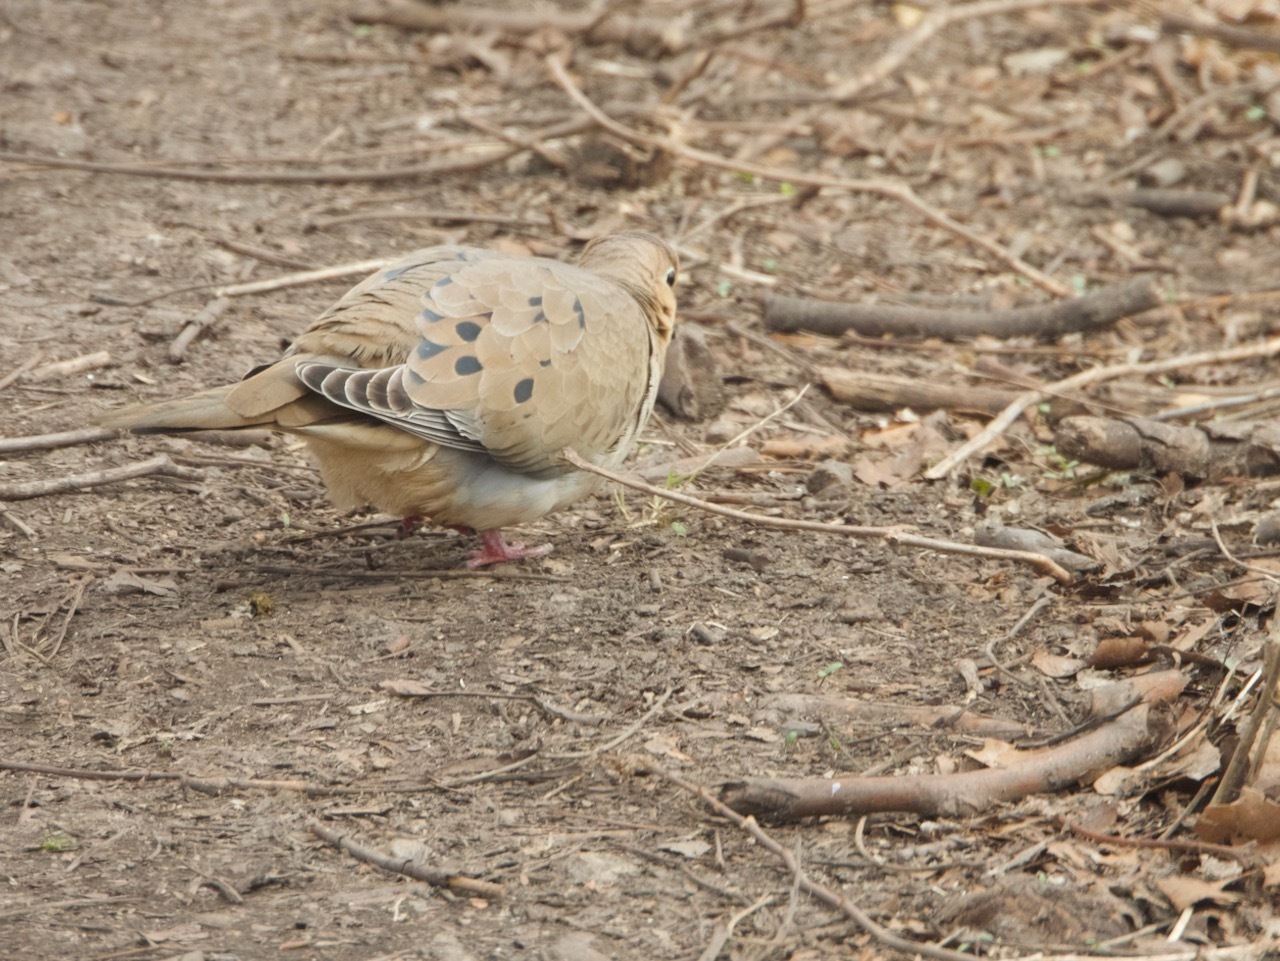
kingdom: Animalia
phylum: Chordata
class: Aves
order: Columbiformes
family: Columbidae
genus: Zenaida
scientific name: Zenaida macroura
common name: Mourning dove
